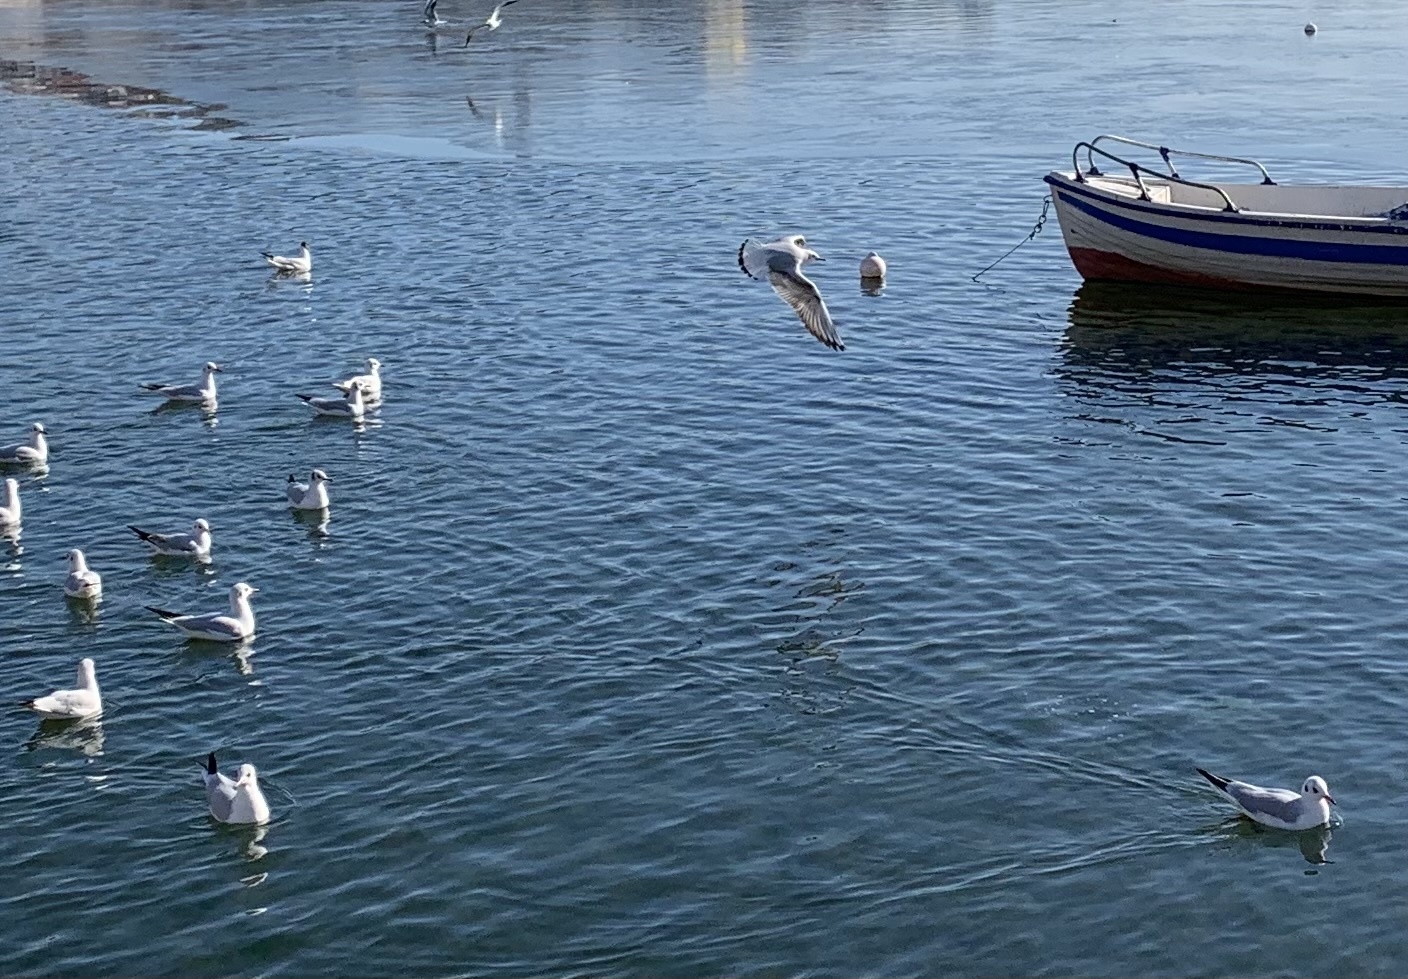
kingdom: Animalia
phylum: Chordata
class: Aves
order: Charadriiformes
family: Laridae
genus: Chroicocephalus
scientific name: Chroicocephalus ridibundus
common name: Black-headed gull
